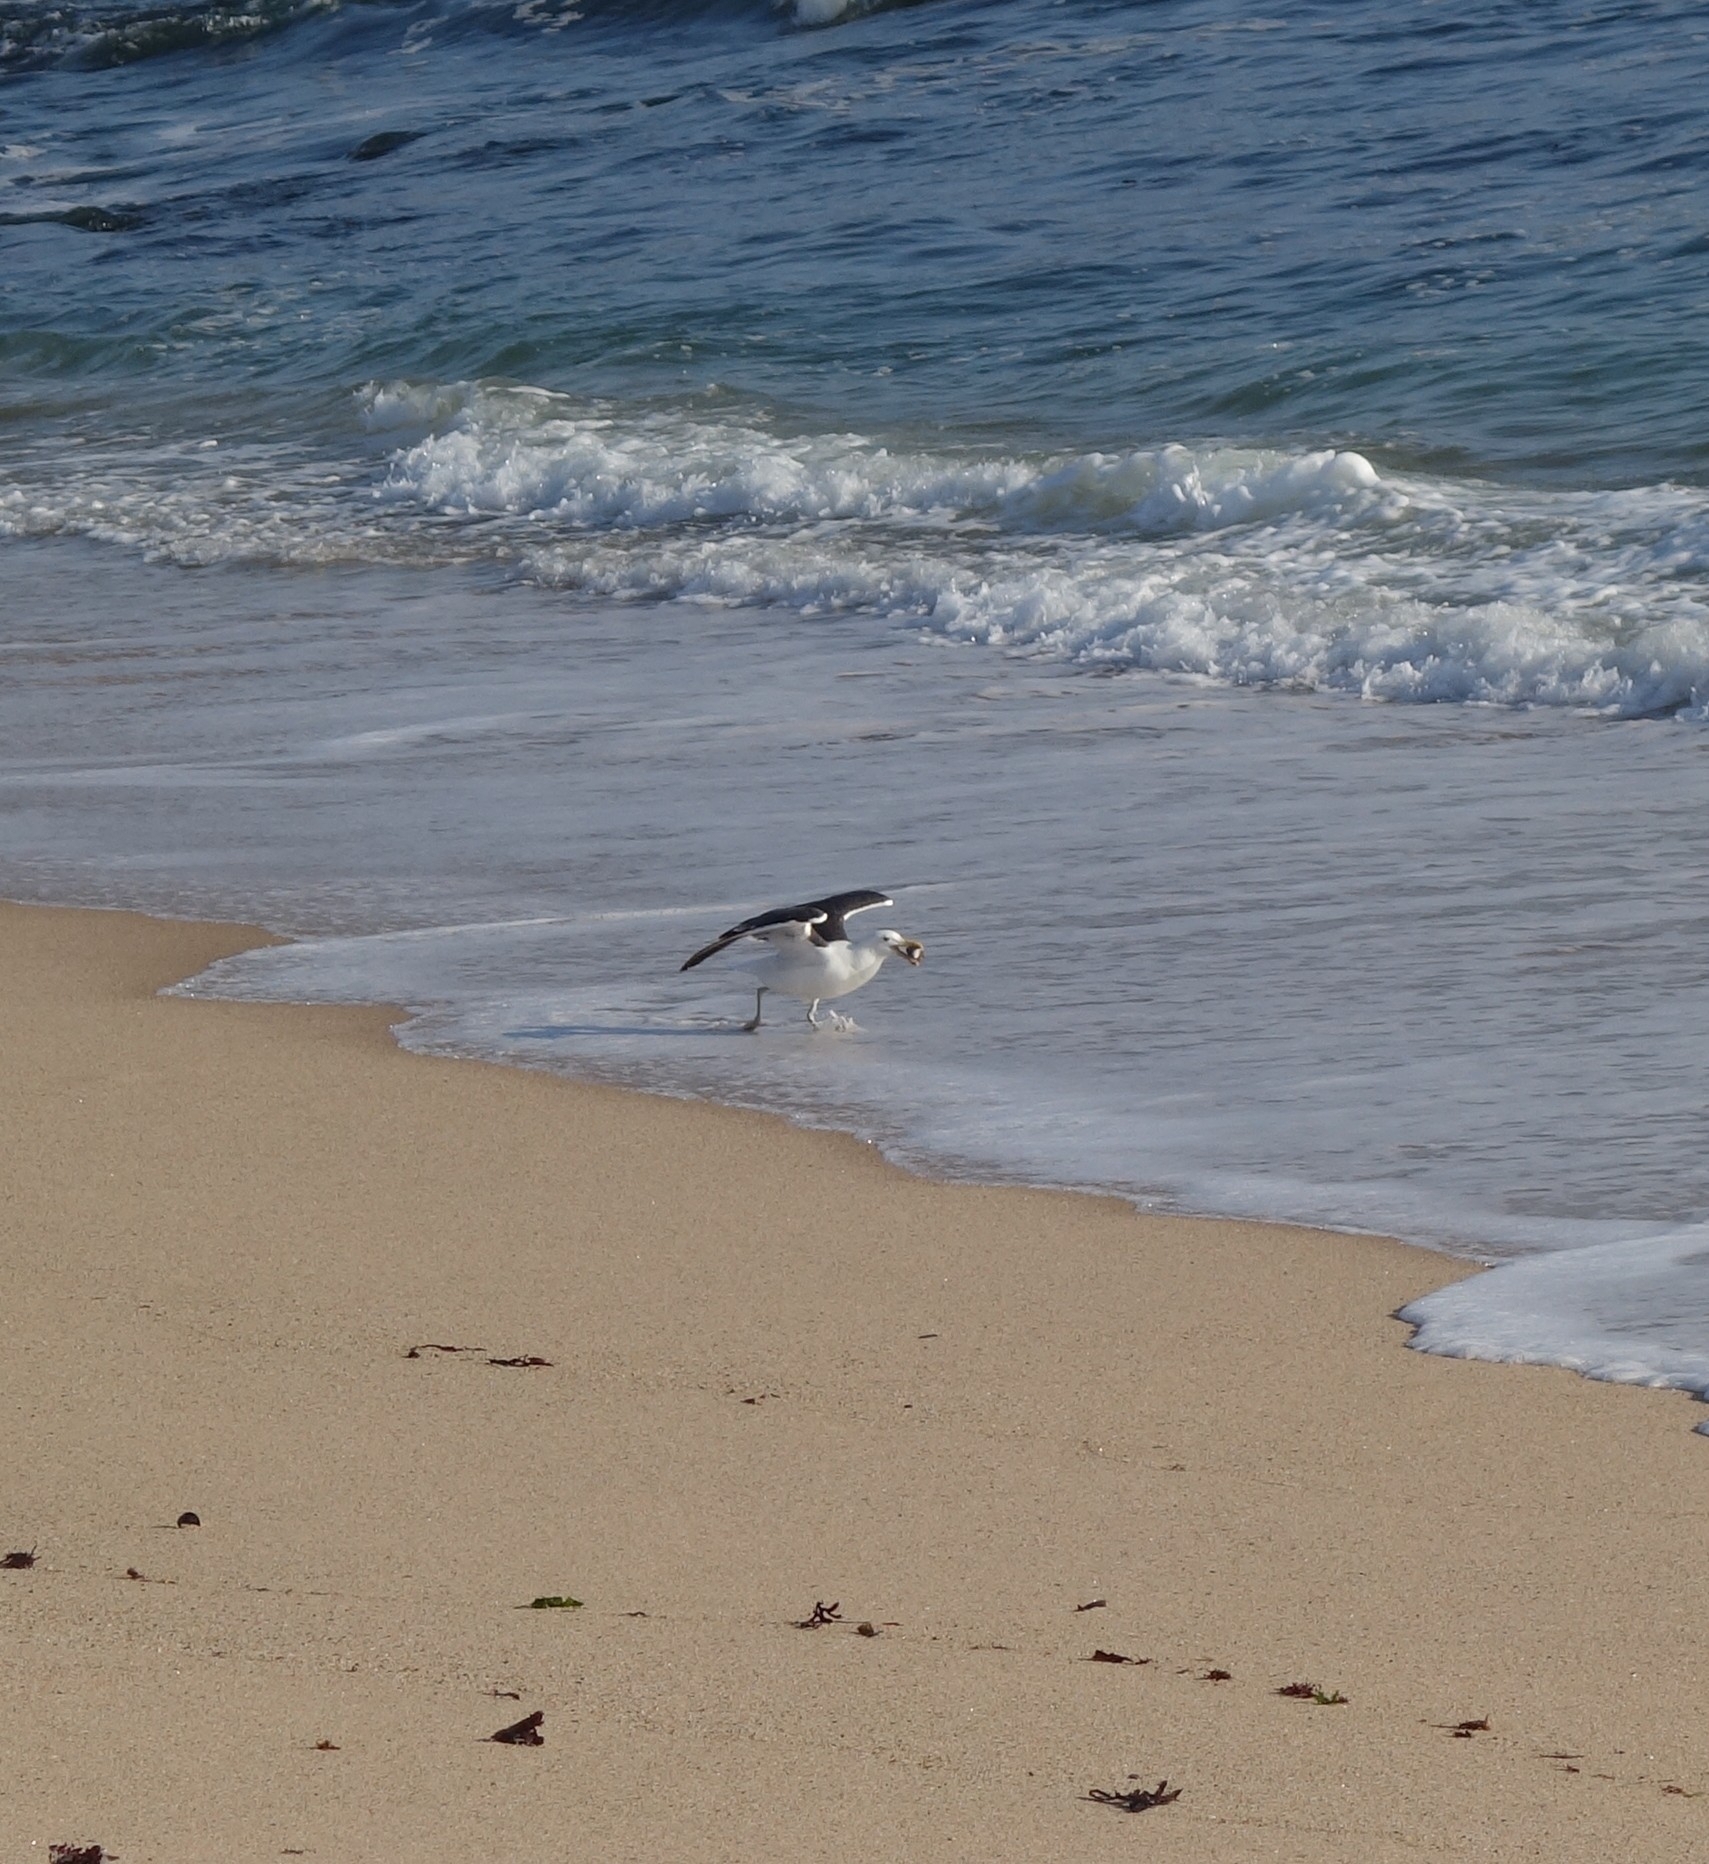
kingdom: Animalia
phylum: Chordata
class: Aves
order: Charadriiformes
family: Laridae
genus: Larus
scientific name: Larus dominicanus
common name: Kelp gull
